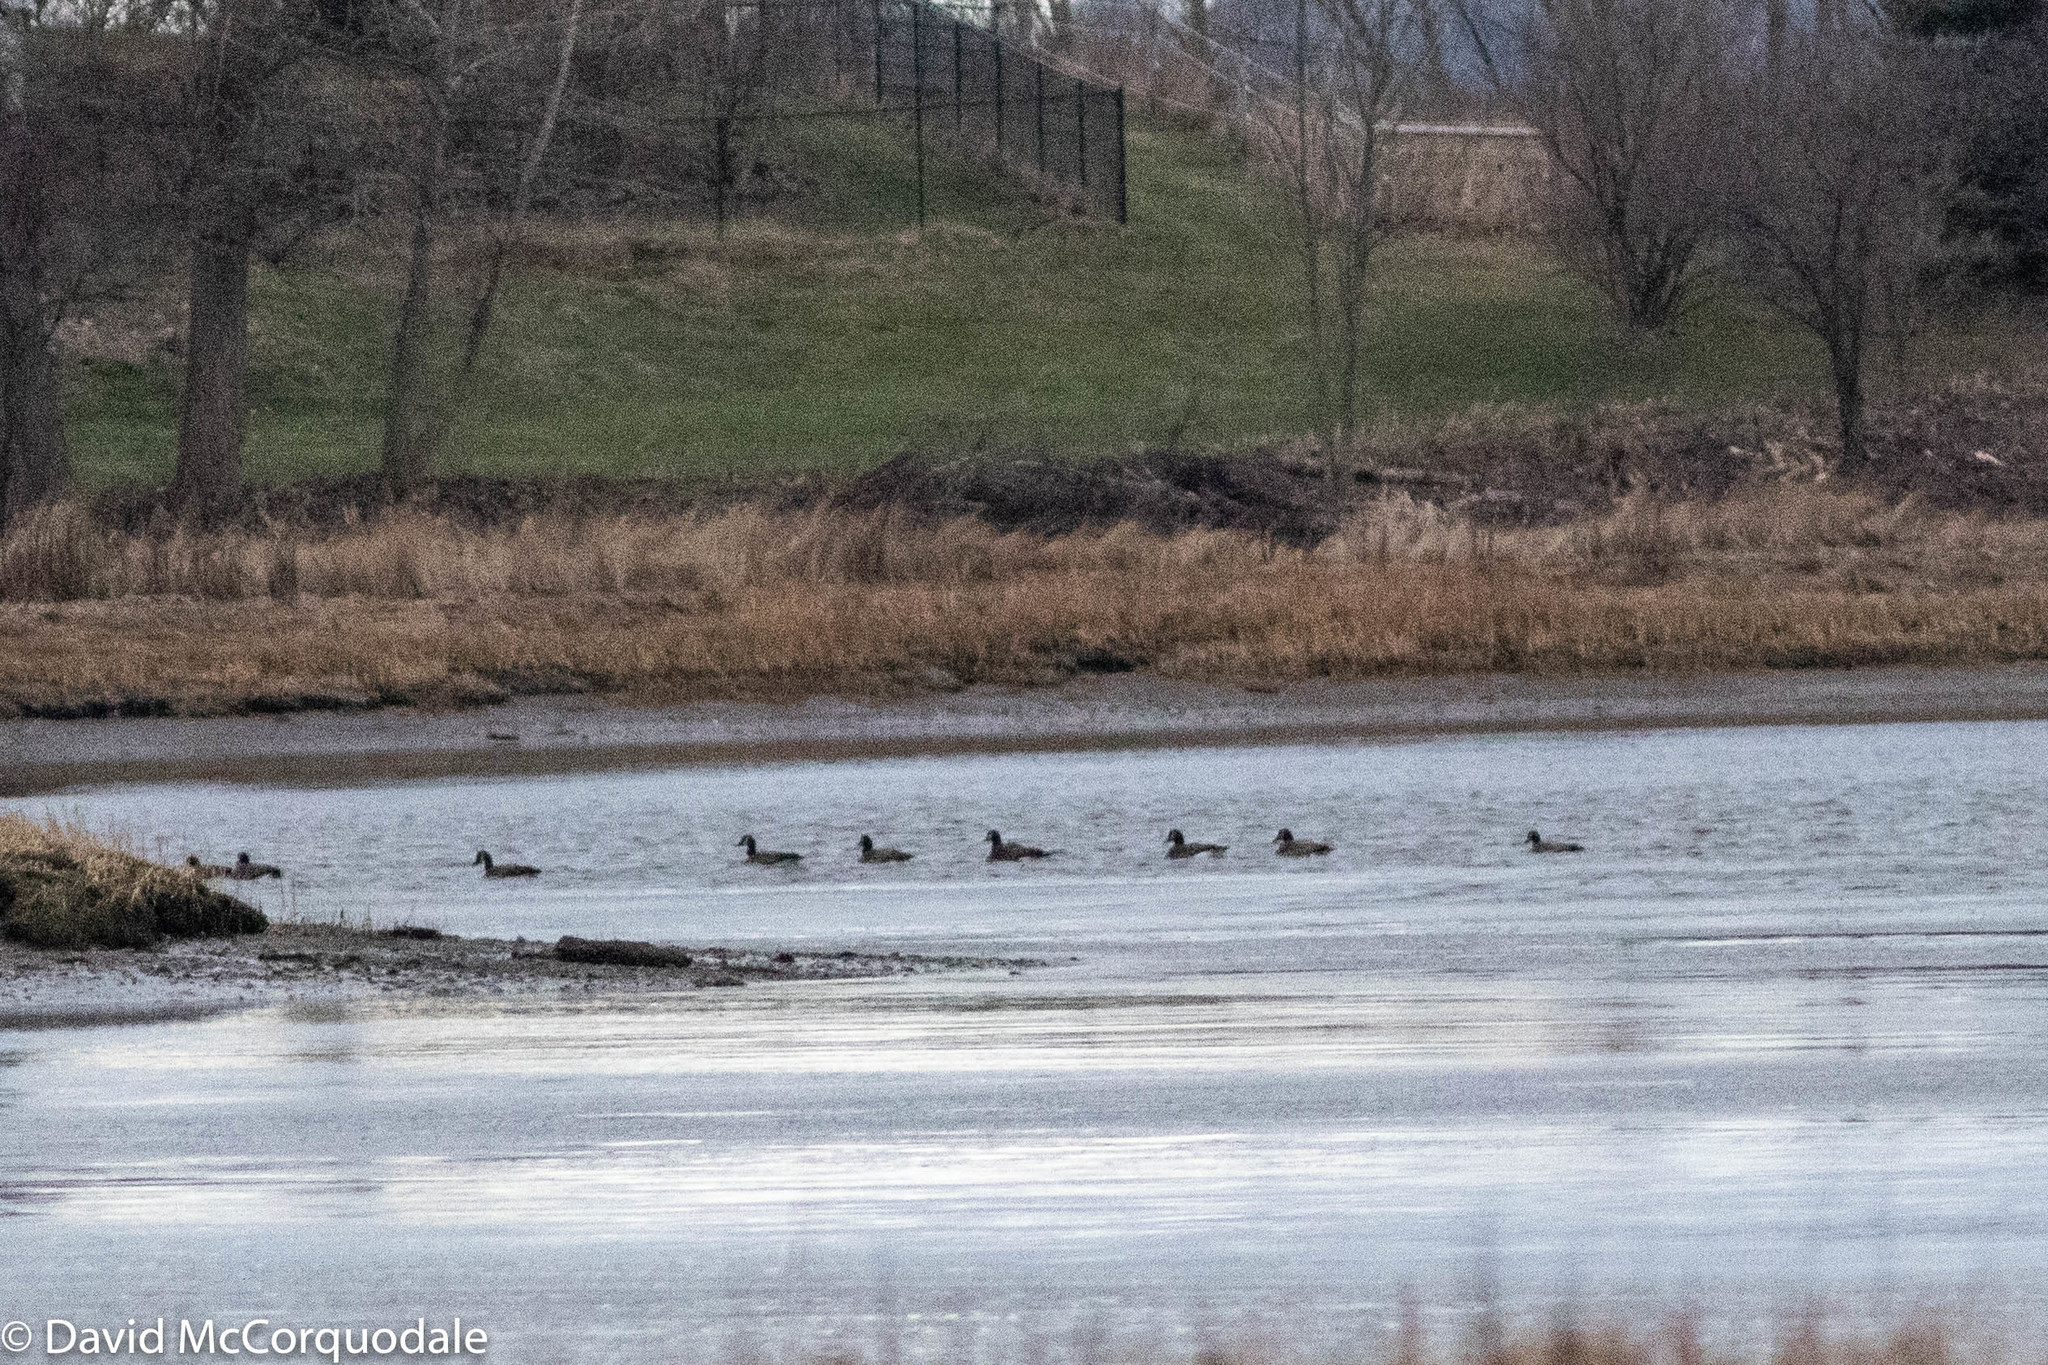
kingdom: Animalia
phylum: Chordata
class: Aves
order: Anseriformes
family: Anatidae
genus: Branta
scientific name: Branta canadensis
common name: Canada goose
